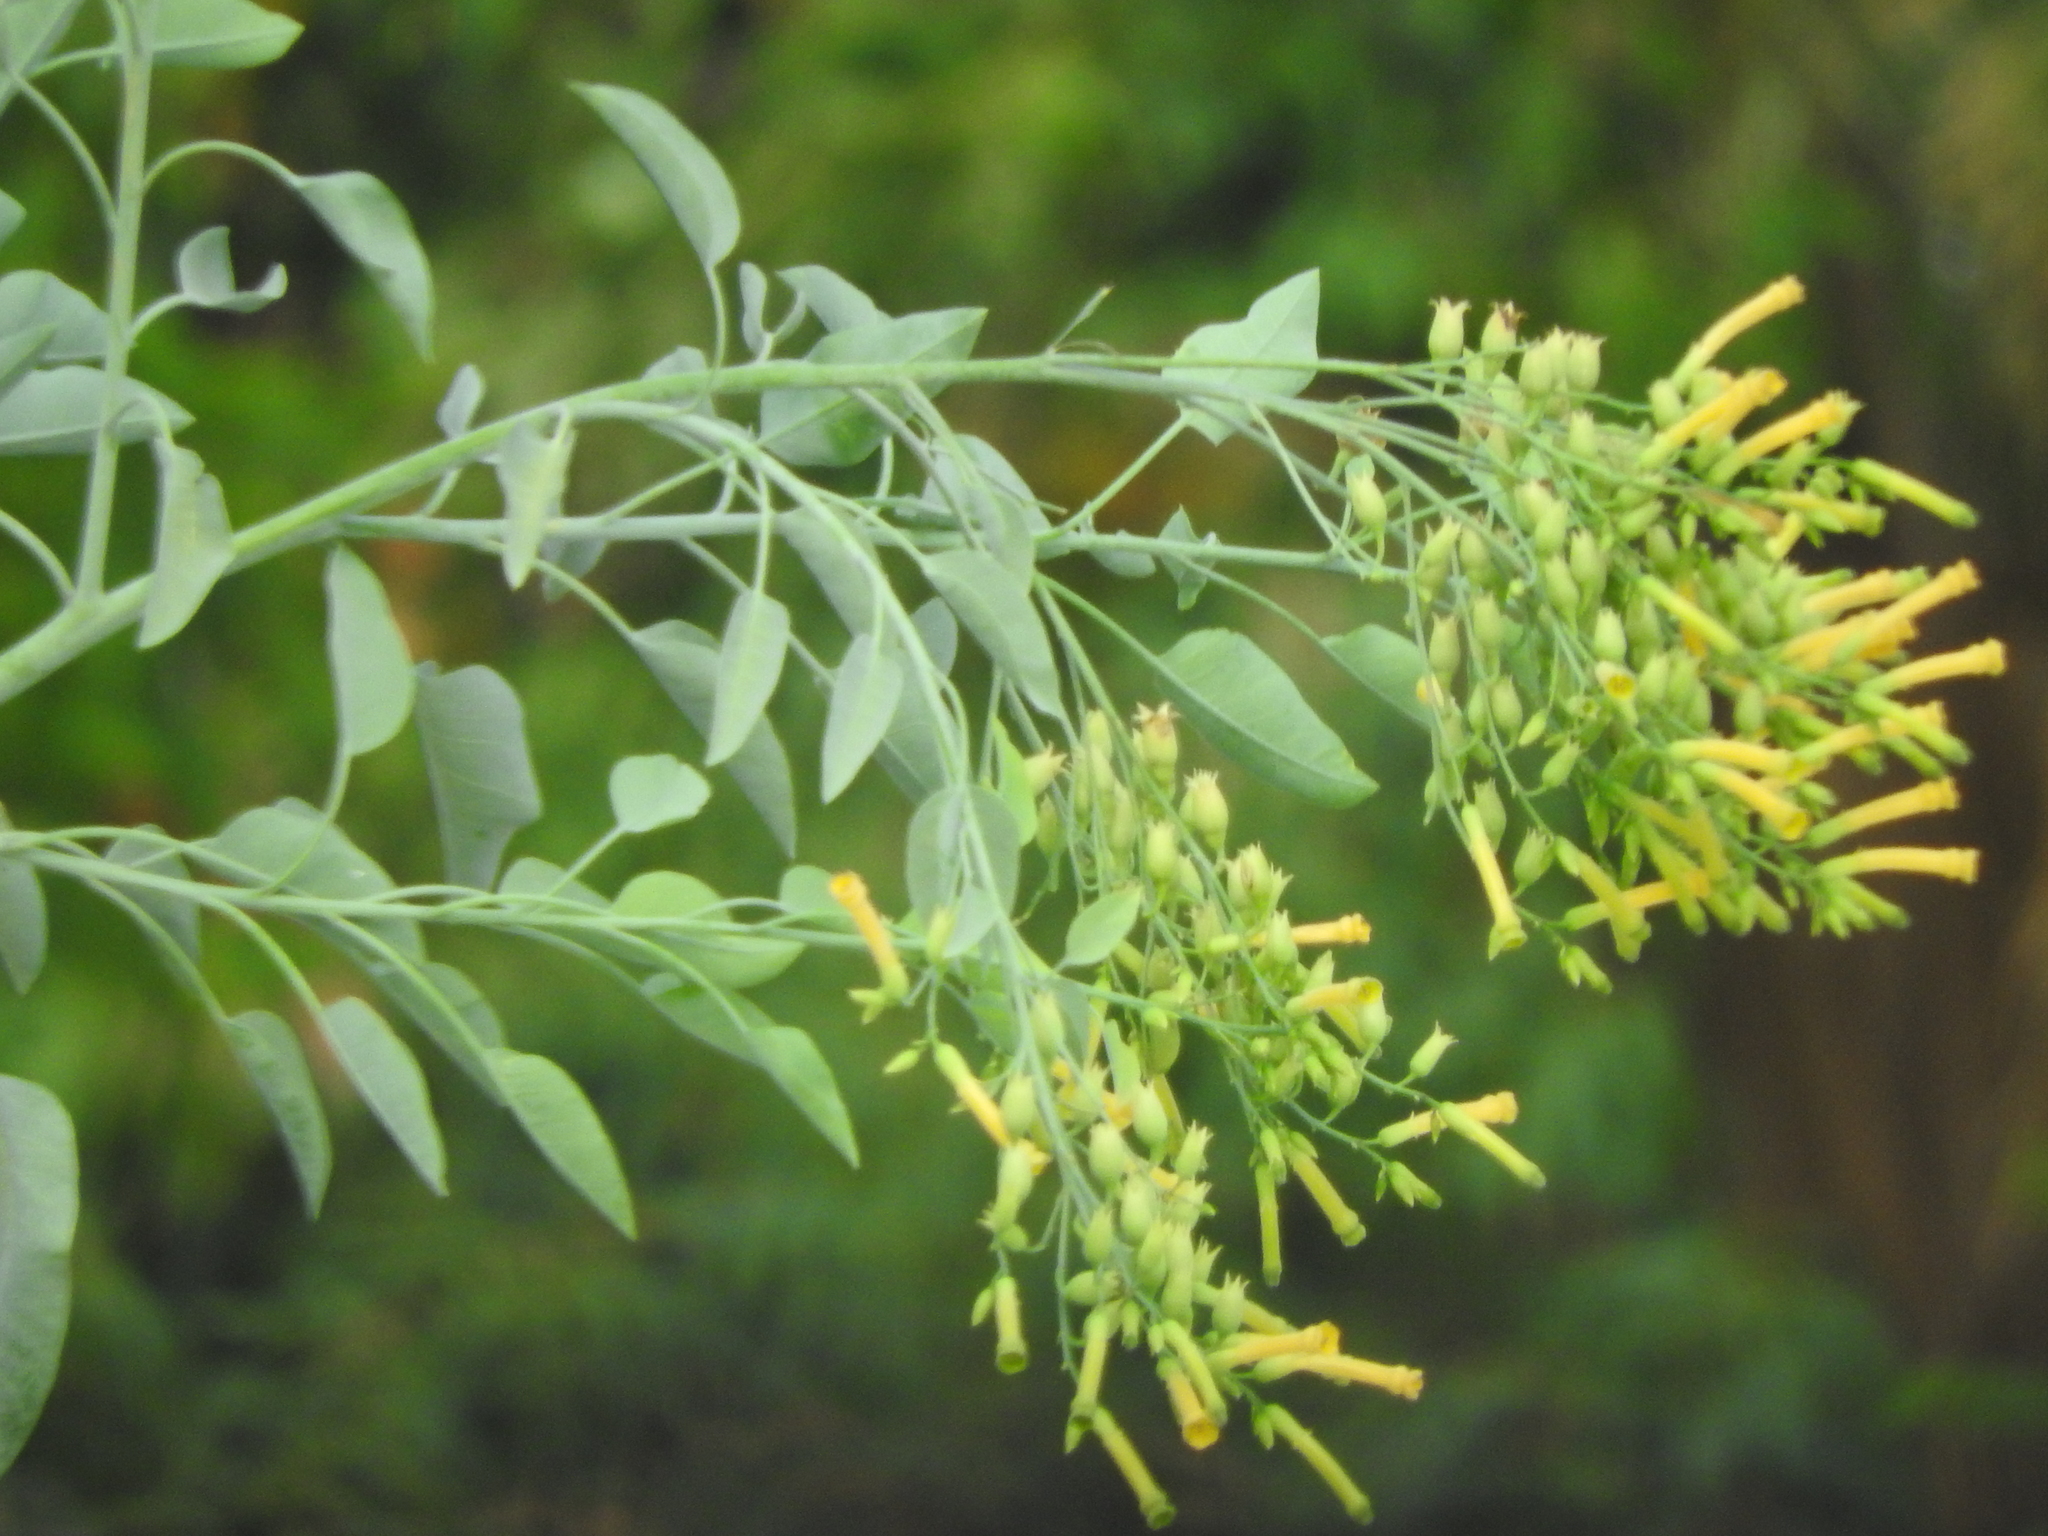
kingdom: Plantae
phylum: Tracheophyta
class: Magnoliopsida
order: Solanales
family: Solanaceae
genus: Nicotiana
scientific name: Nicotiana glauca
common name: Tree tobacco
